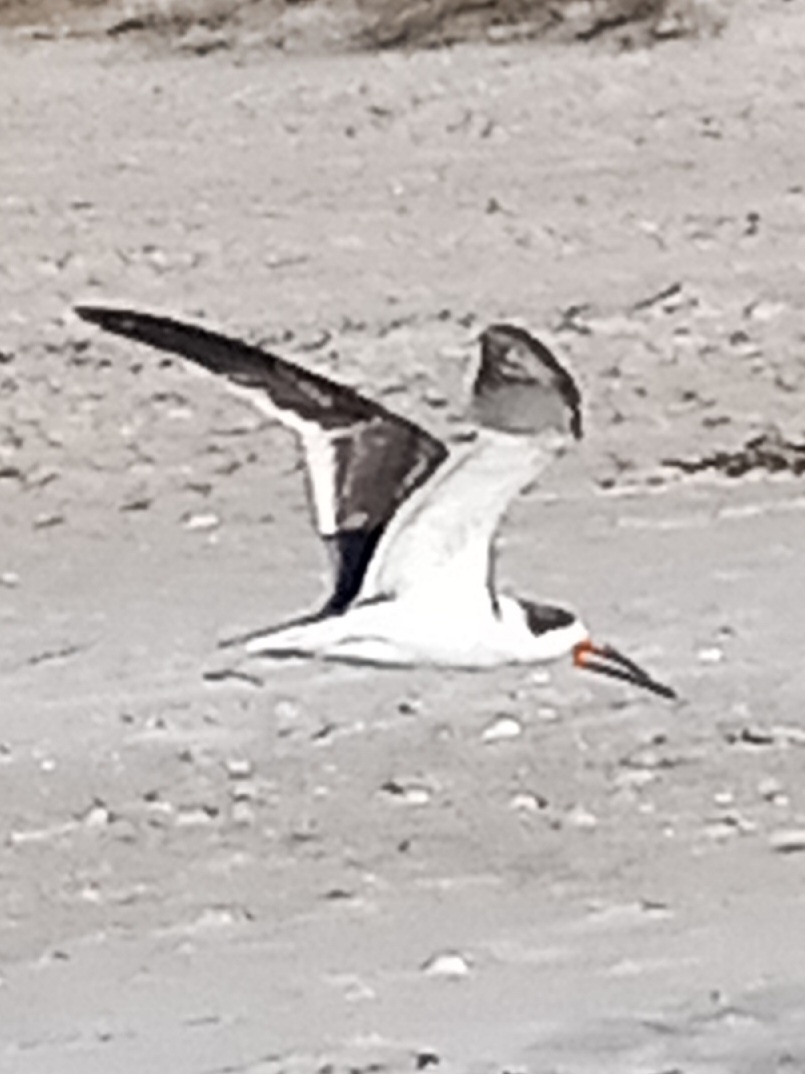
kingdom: Animalia
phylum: Chordata
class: Aves
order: Charadriiformes
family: Laridae
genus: Rynchops
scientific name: Rynchops niger
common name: Black skimmer
